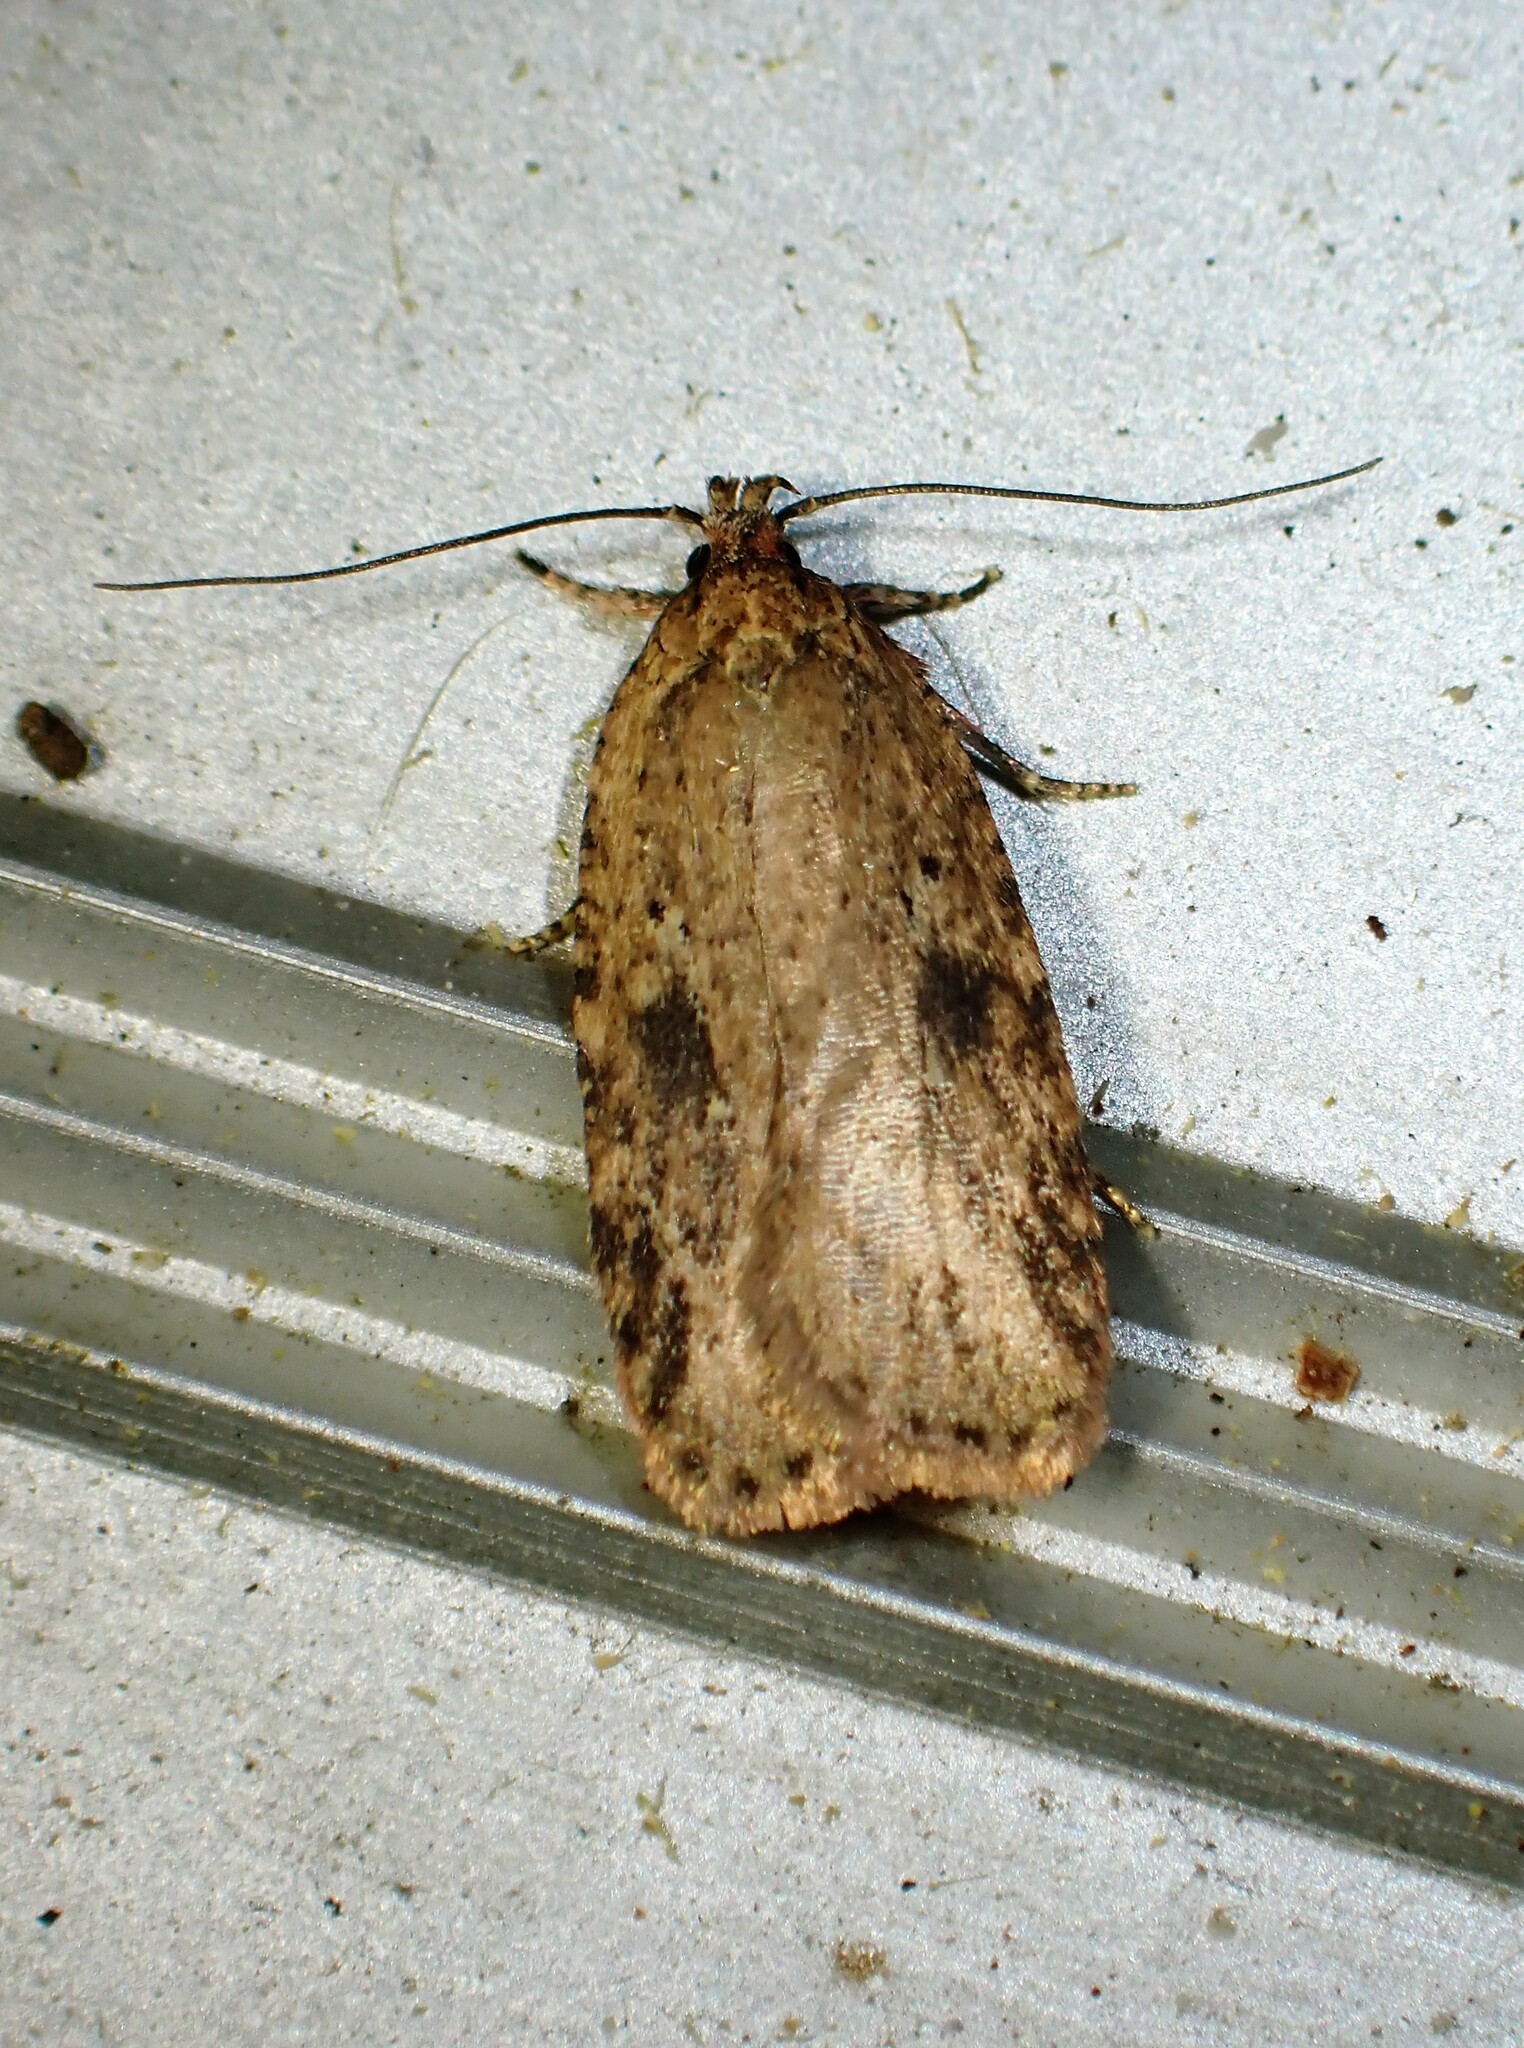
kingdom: Animalia
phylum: Arthropoda
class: Insecta
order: Lepidoptera
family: Depressariidae
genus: Agonopterix
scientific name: Agonopterix pulvipennella
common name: Goldenrod leafffolder
